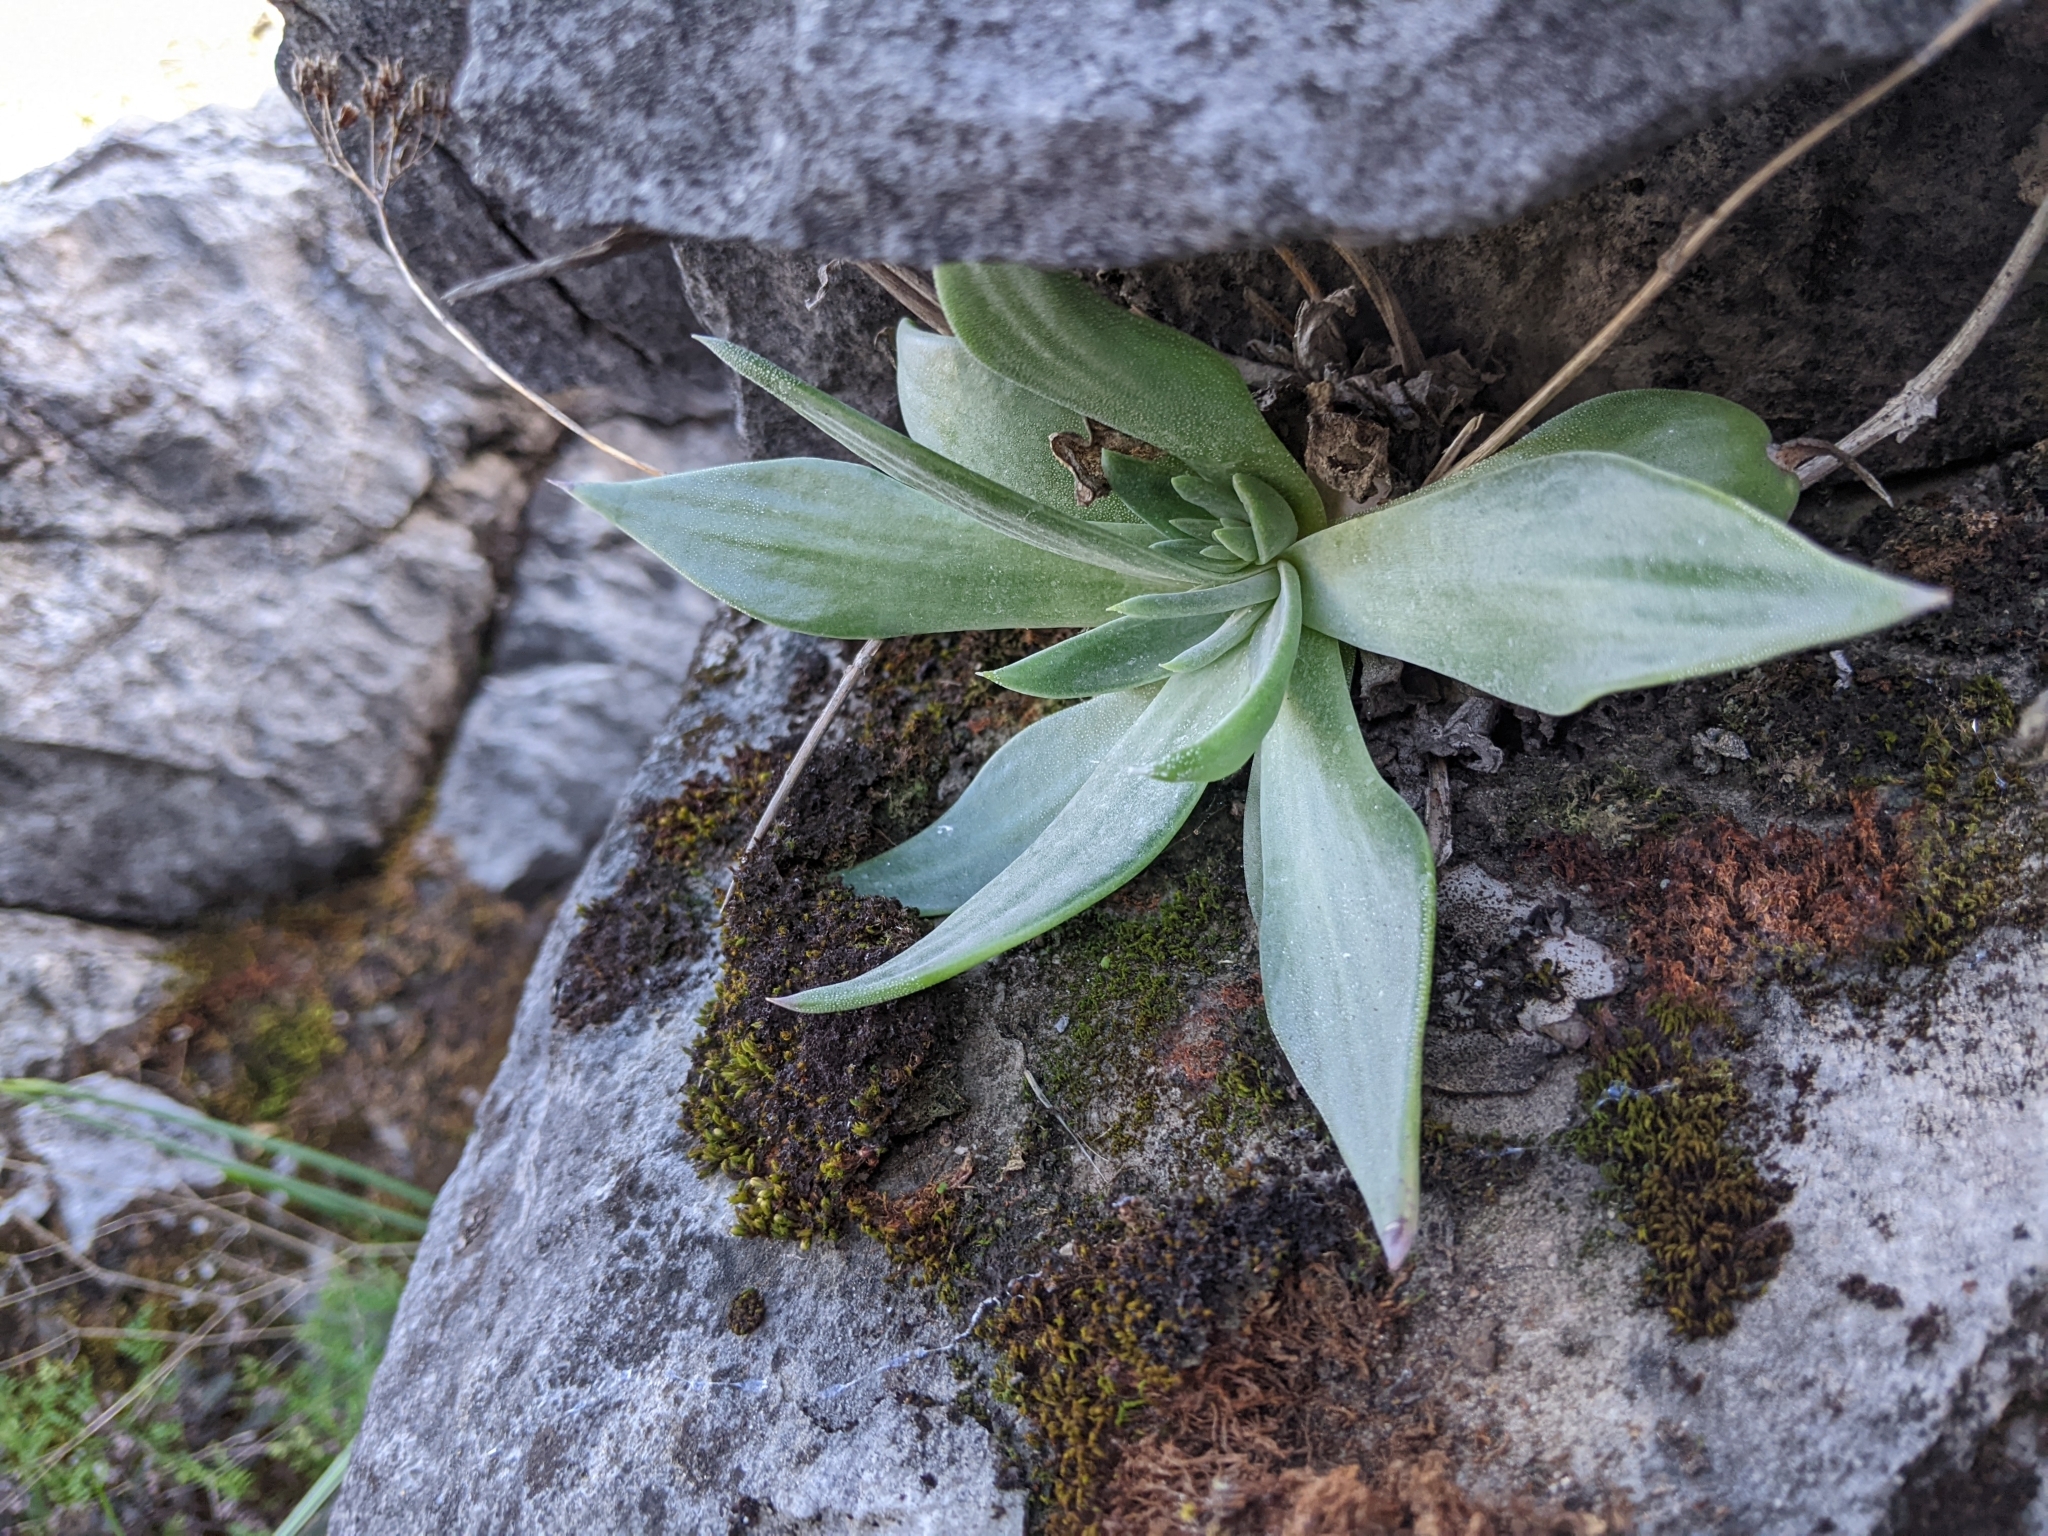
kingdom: Plantae
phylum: Tracheophyta
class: Magnoliopsida
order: Saxifragales
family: Crassulaceae
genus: Dudleya
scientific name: Dudleya cymosa
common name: Canyon dudleya
